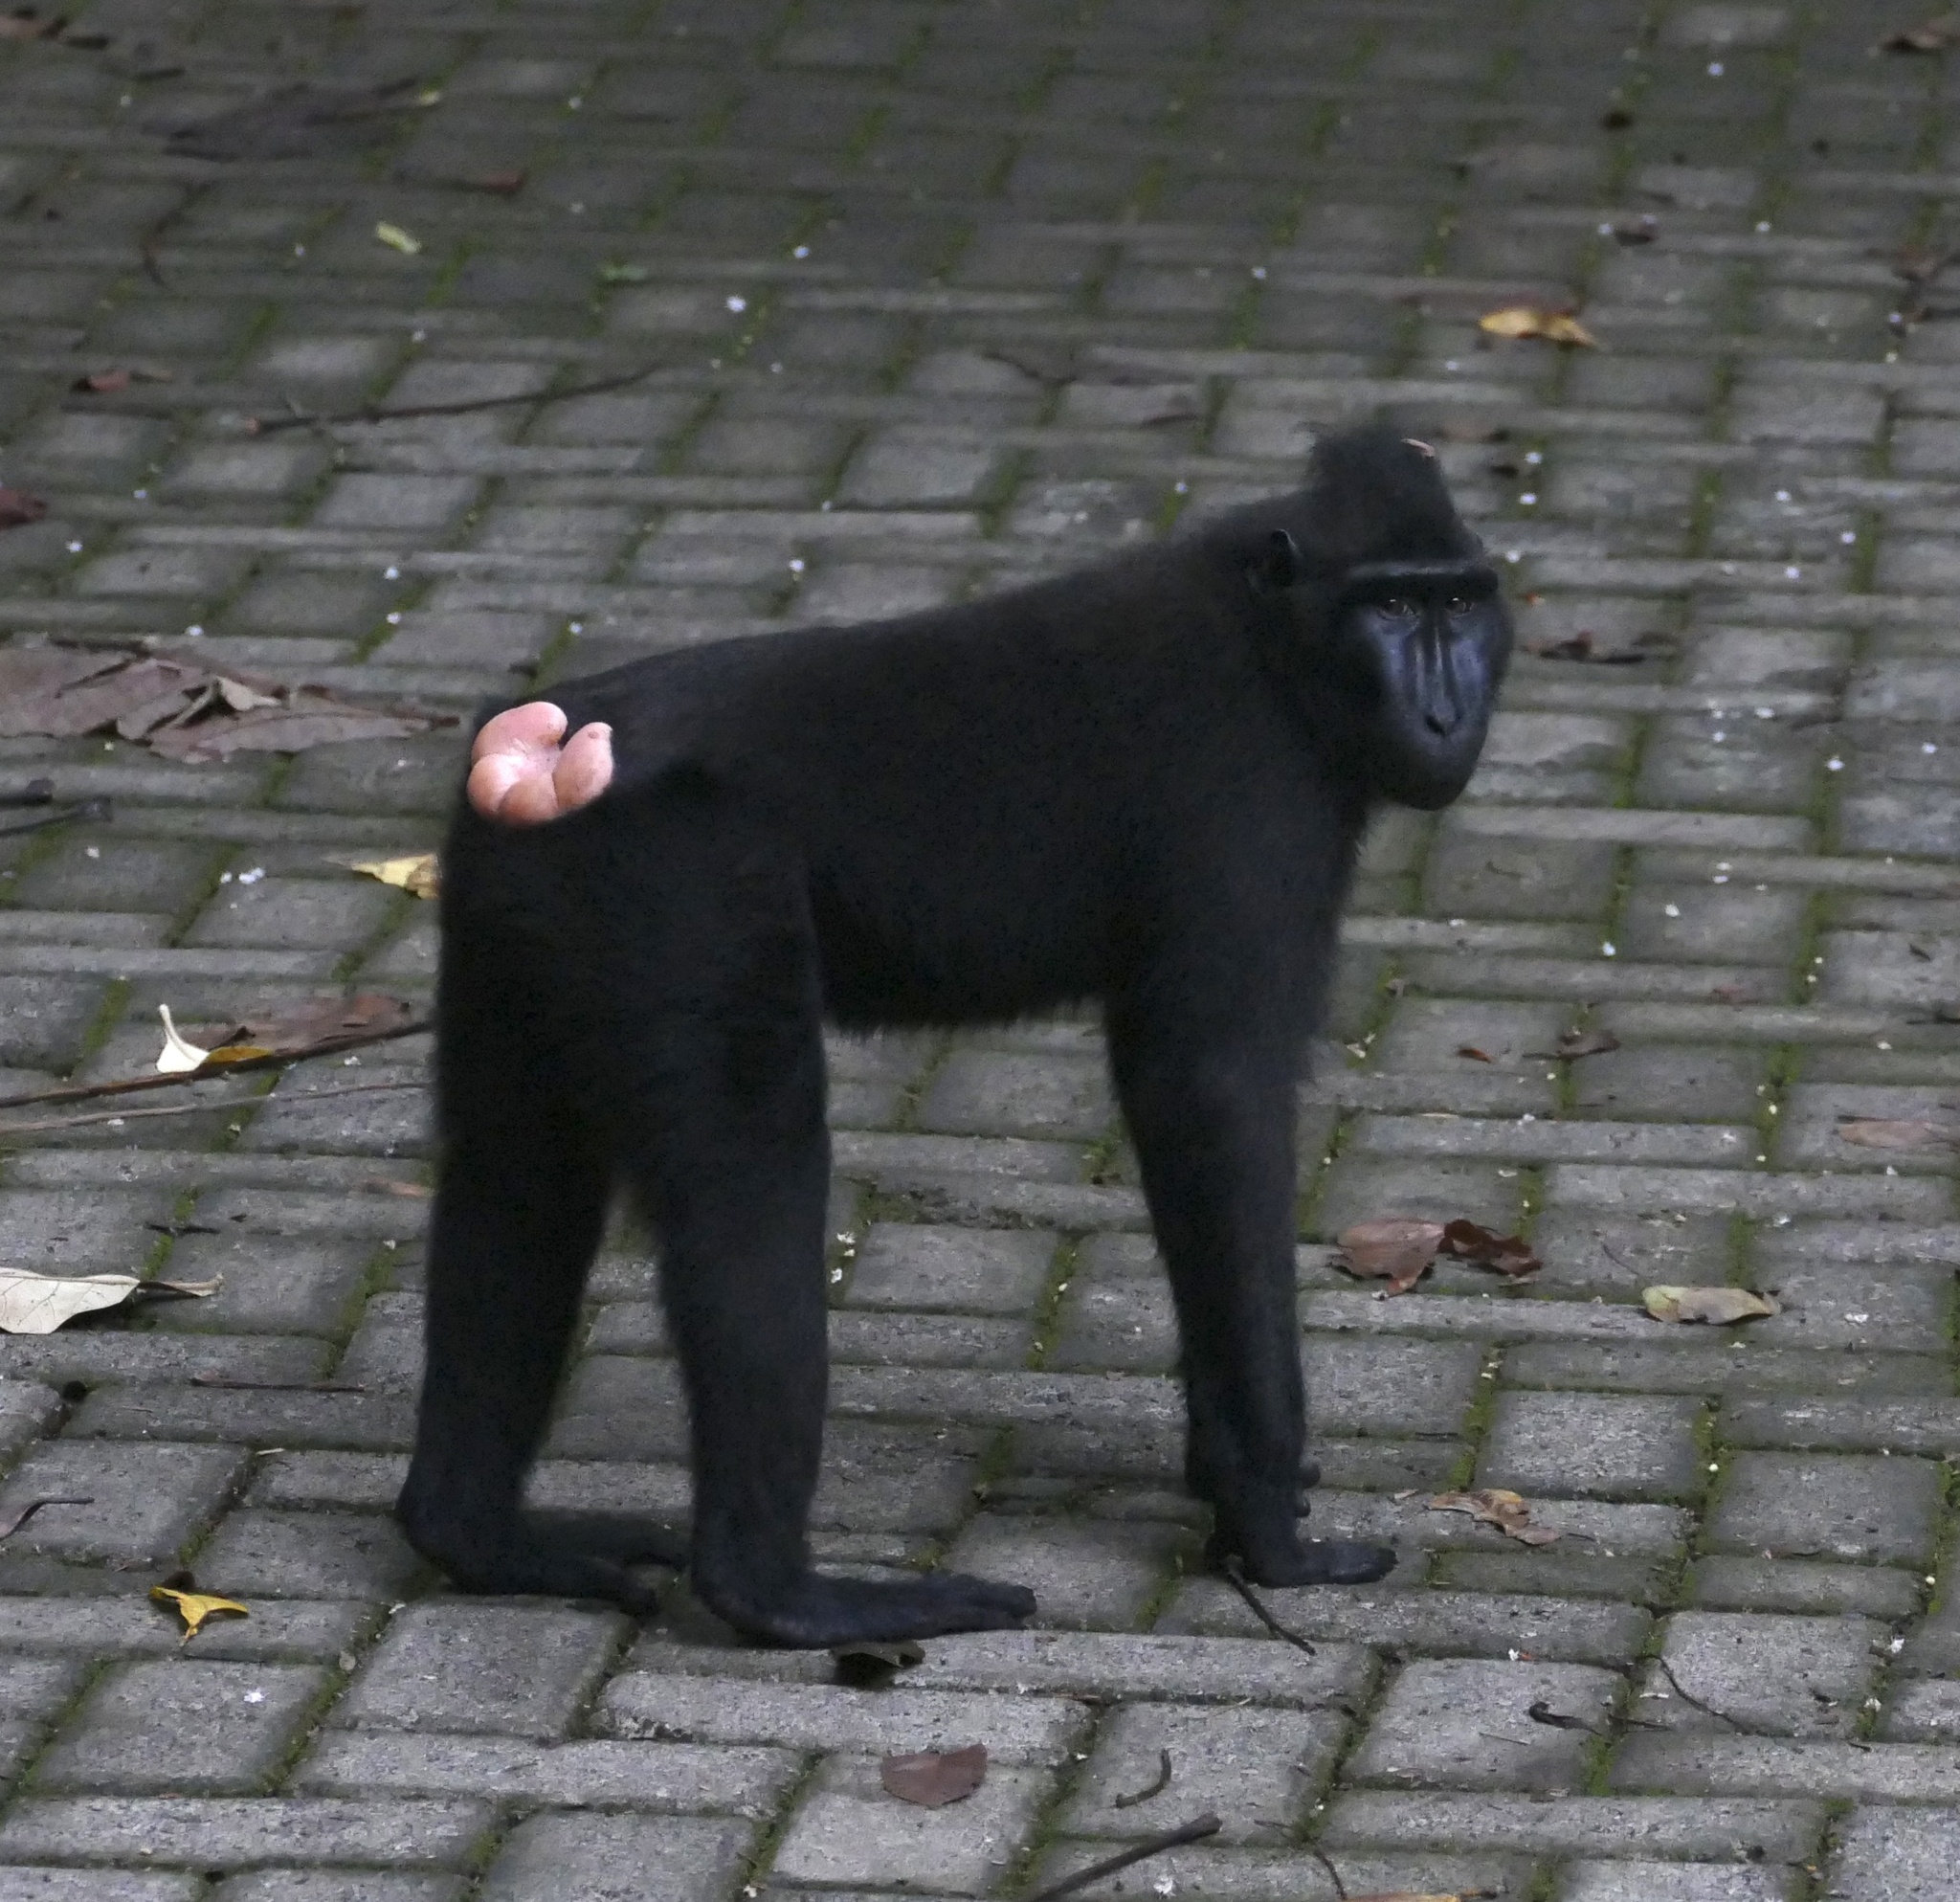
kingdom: Animalia
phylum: Chordata
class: Mammalia
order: Primates
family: Cercopithecidae
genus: Macaca
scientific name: Macaca nigra
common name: Celebes crested macaque
